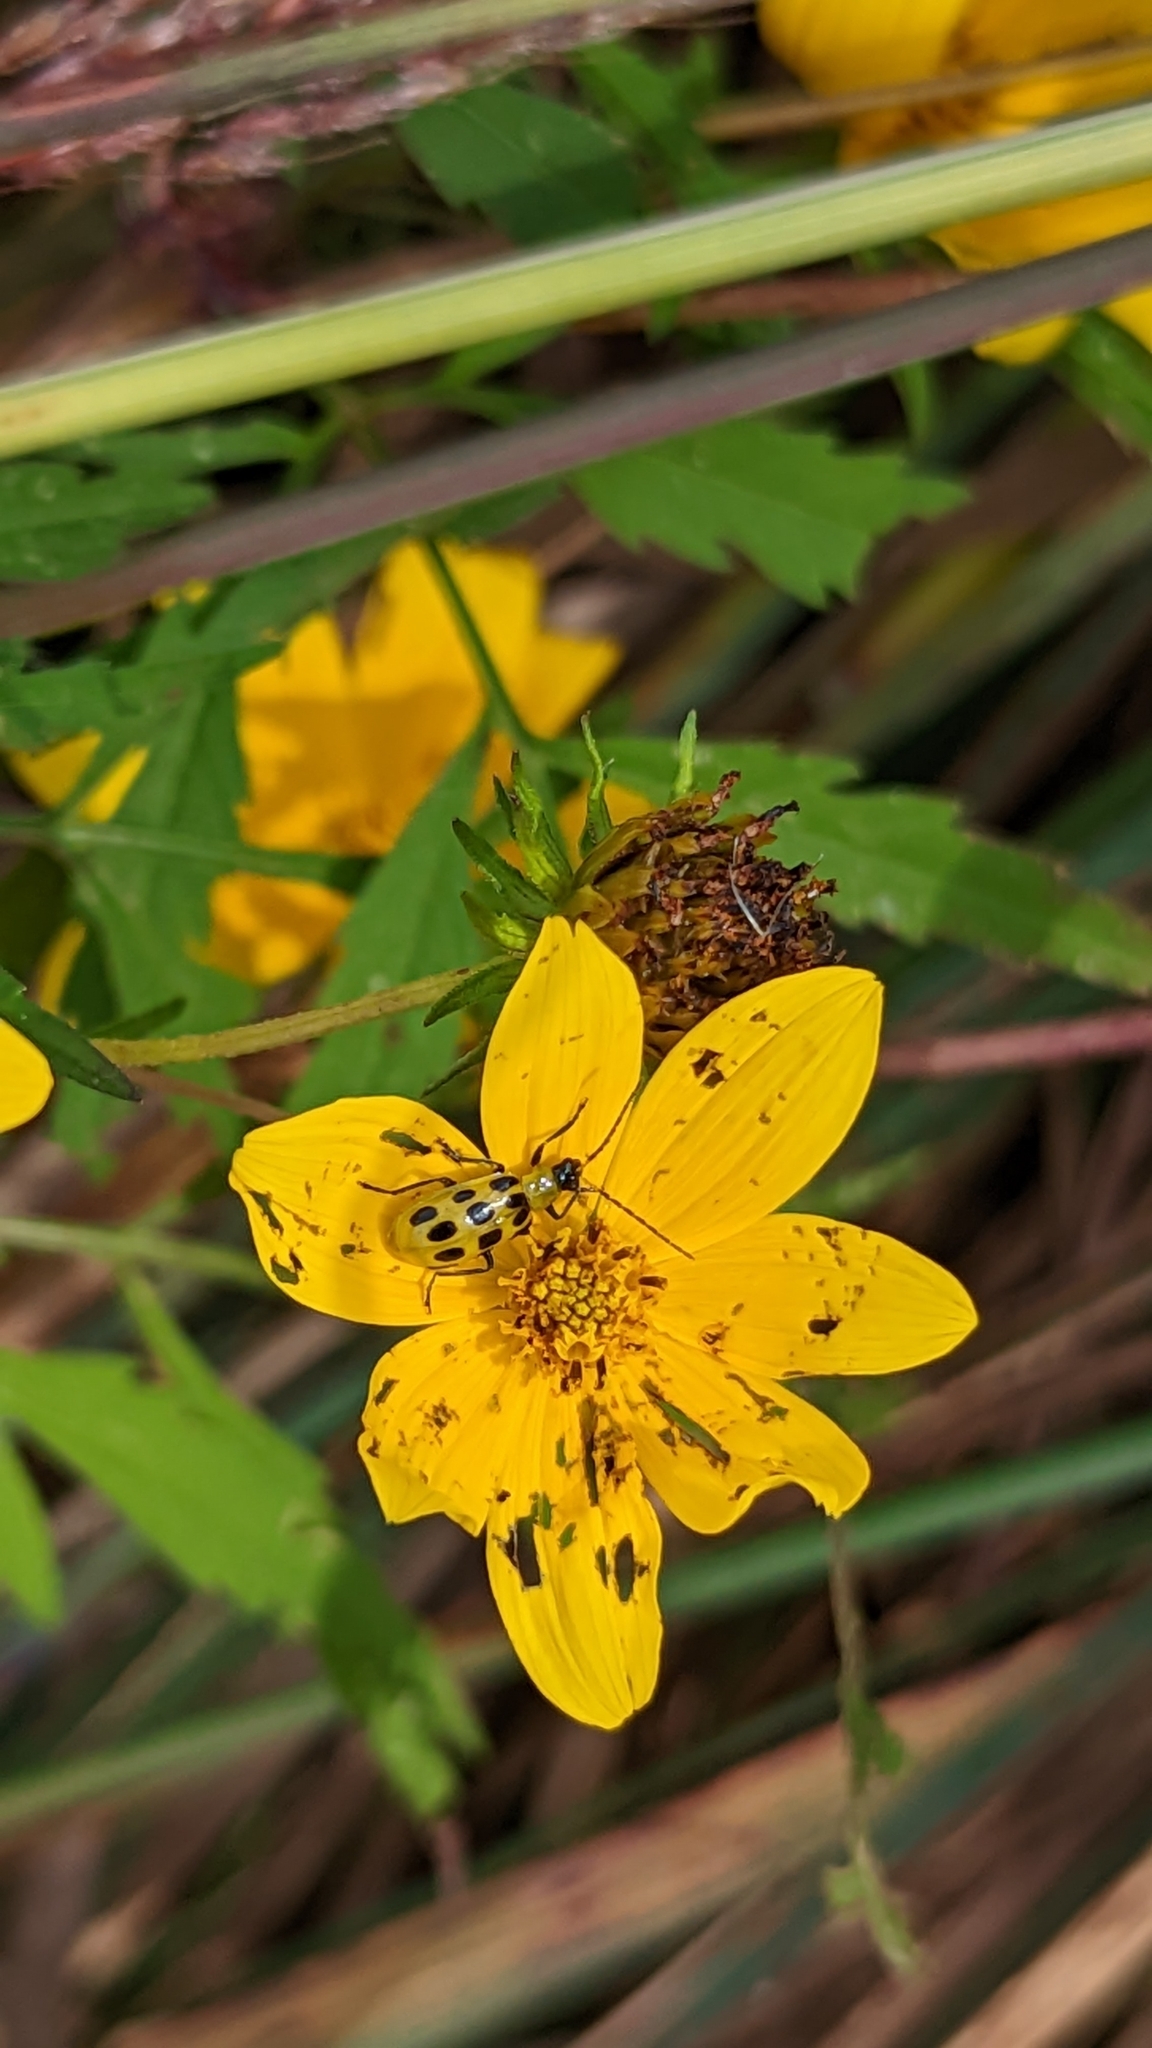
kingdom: Animalia
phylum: Arthropoda
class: Insecta
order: Coleoptera
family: Chrysomelidae
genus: Diabrotica
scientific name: Diabrotica undecimpunctata
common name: Spotted cucumber beetle
